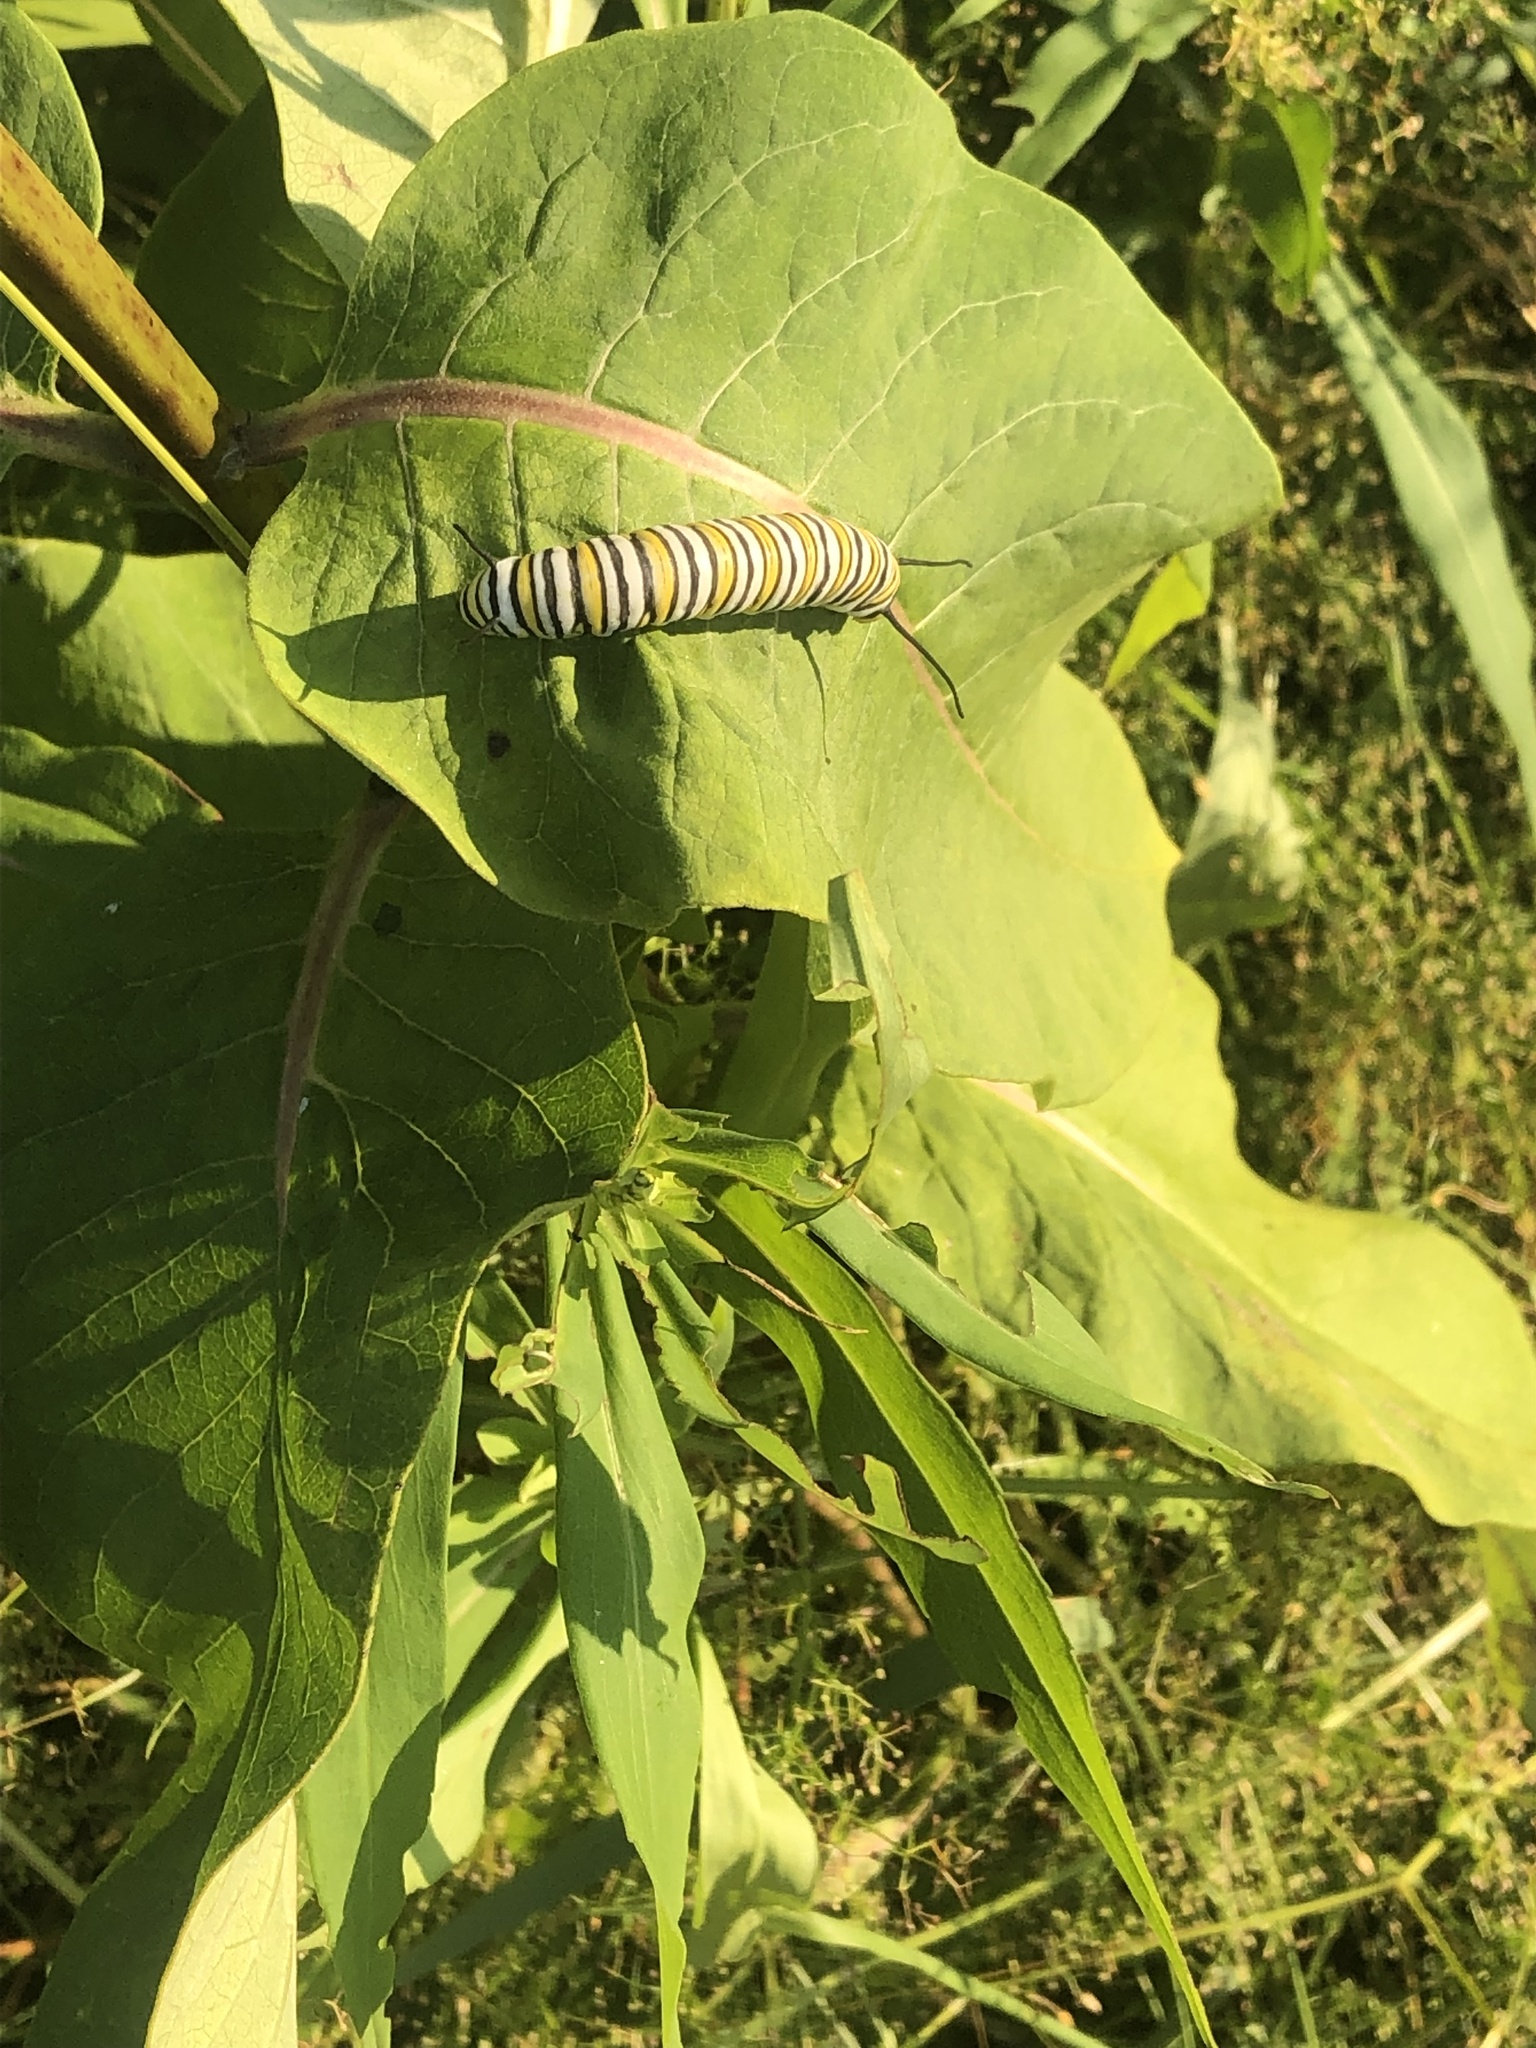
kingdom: Animalia
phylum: Arthropoda
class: Insecta
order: Lepidoptera
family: Nymphalidae
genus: Danaus
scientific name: Danaus plexippus
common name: Monarch
